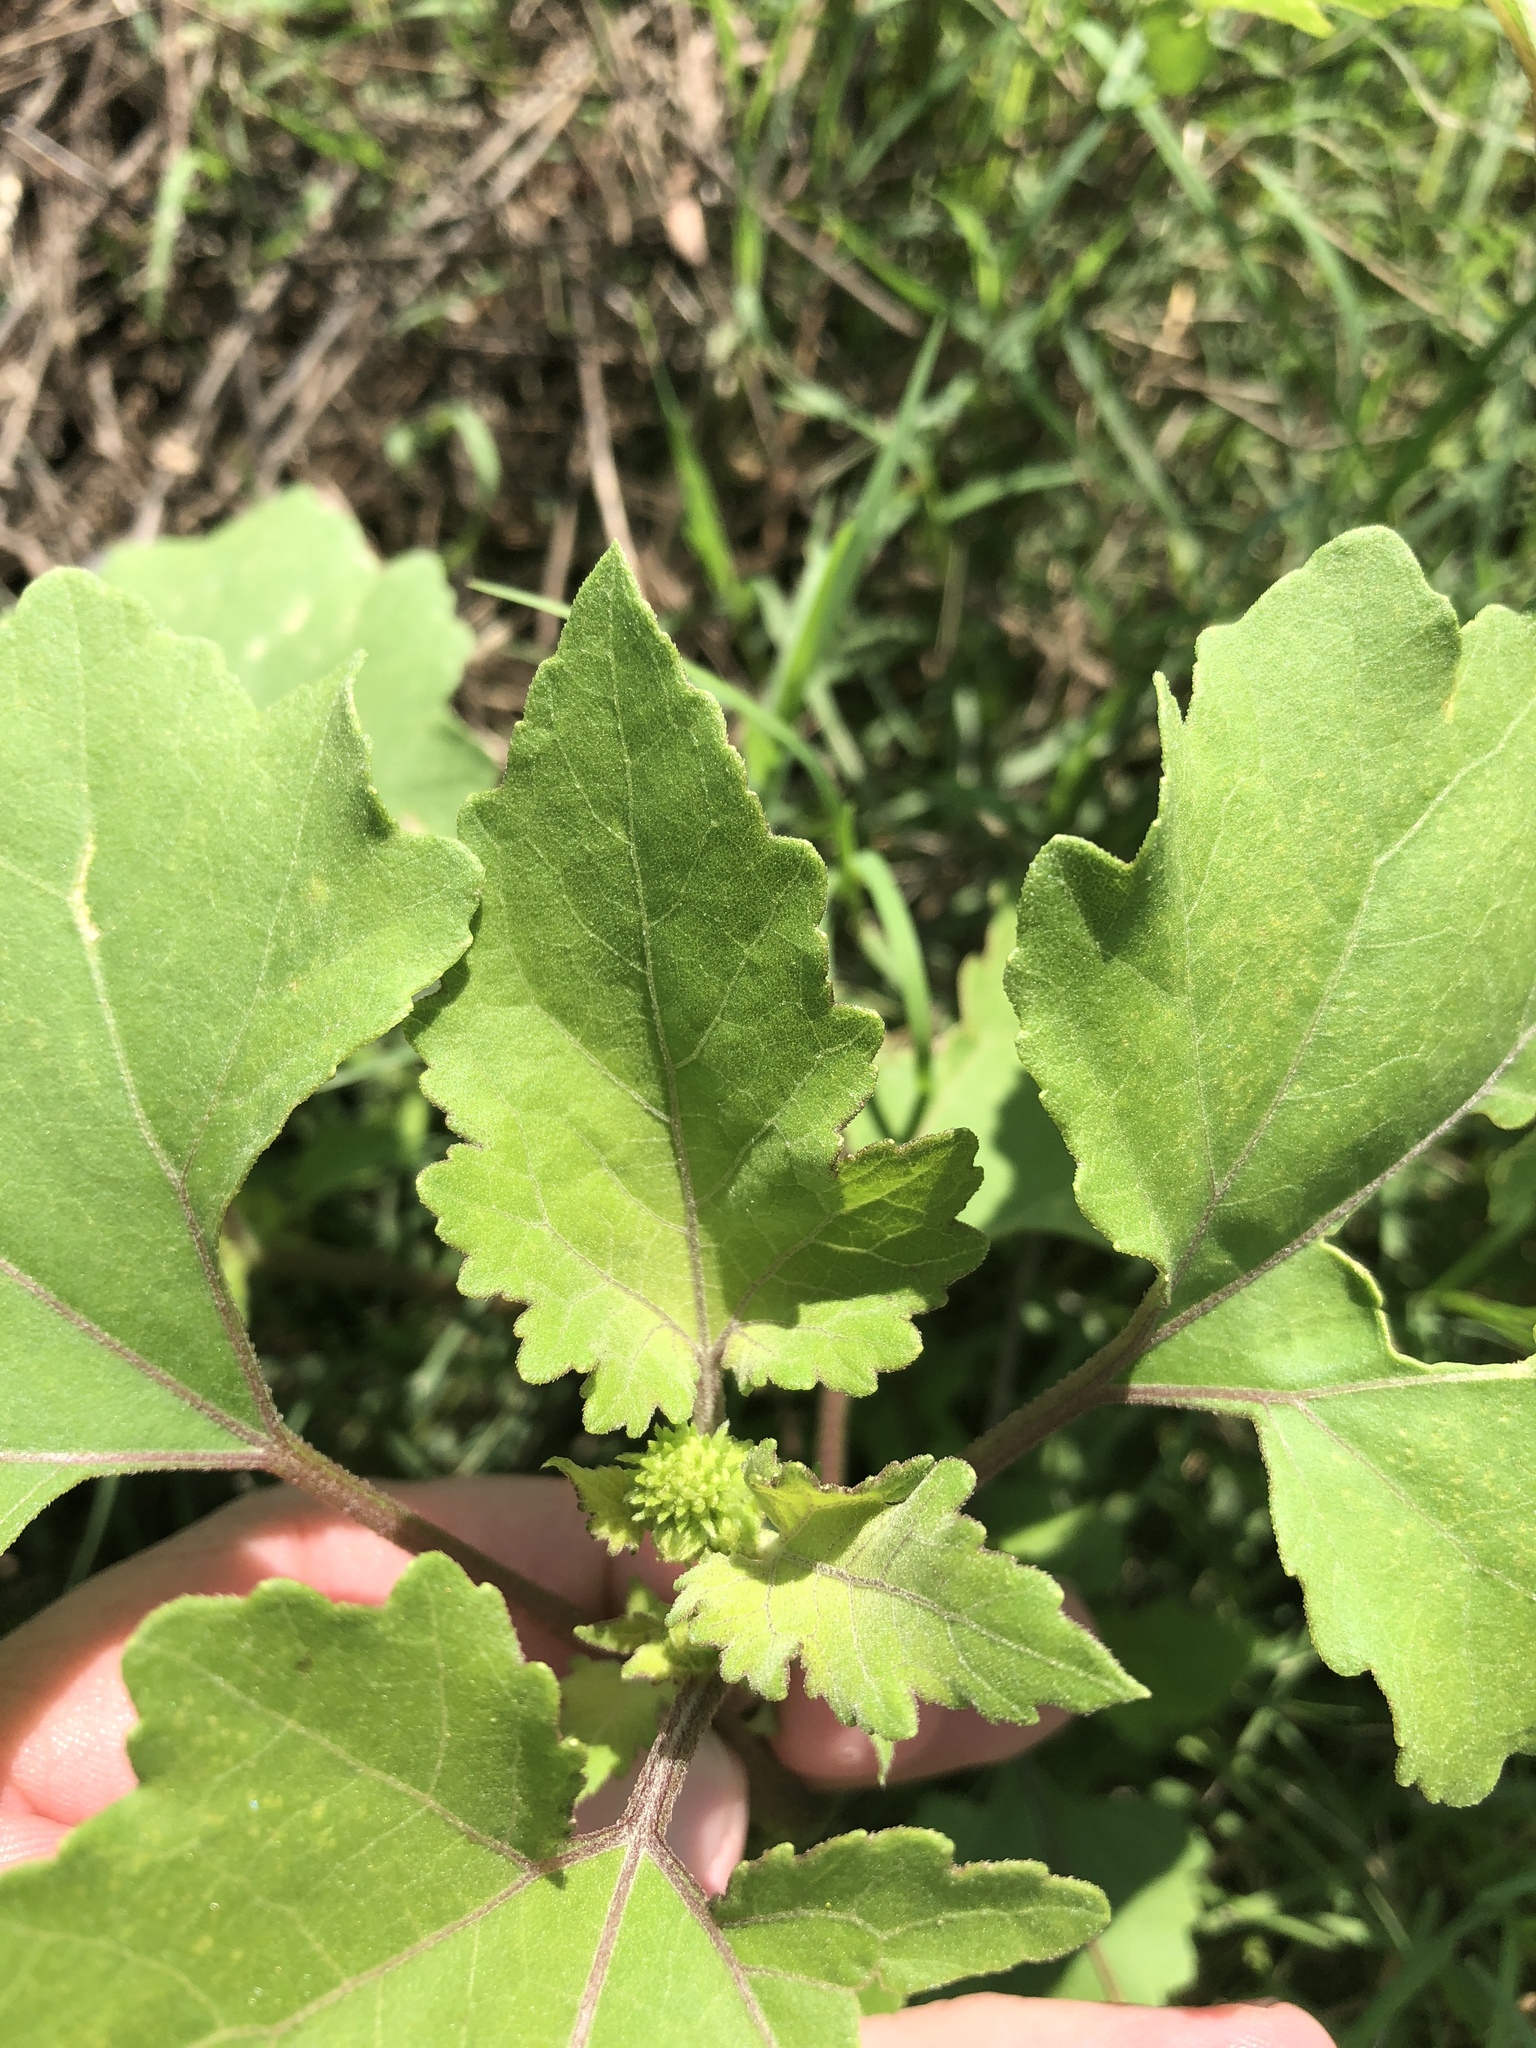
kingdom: Plantae
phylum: Tracheophyta
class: Magnoliopsida
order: Asterales
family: Asteraceae
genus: Xanthium
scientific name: Xanthium strumarium
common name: Rough cocklebur
